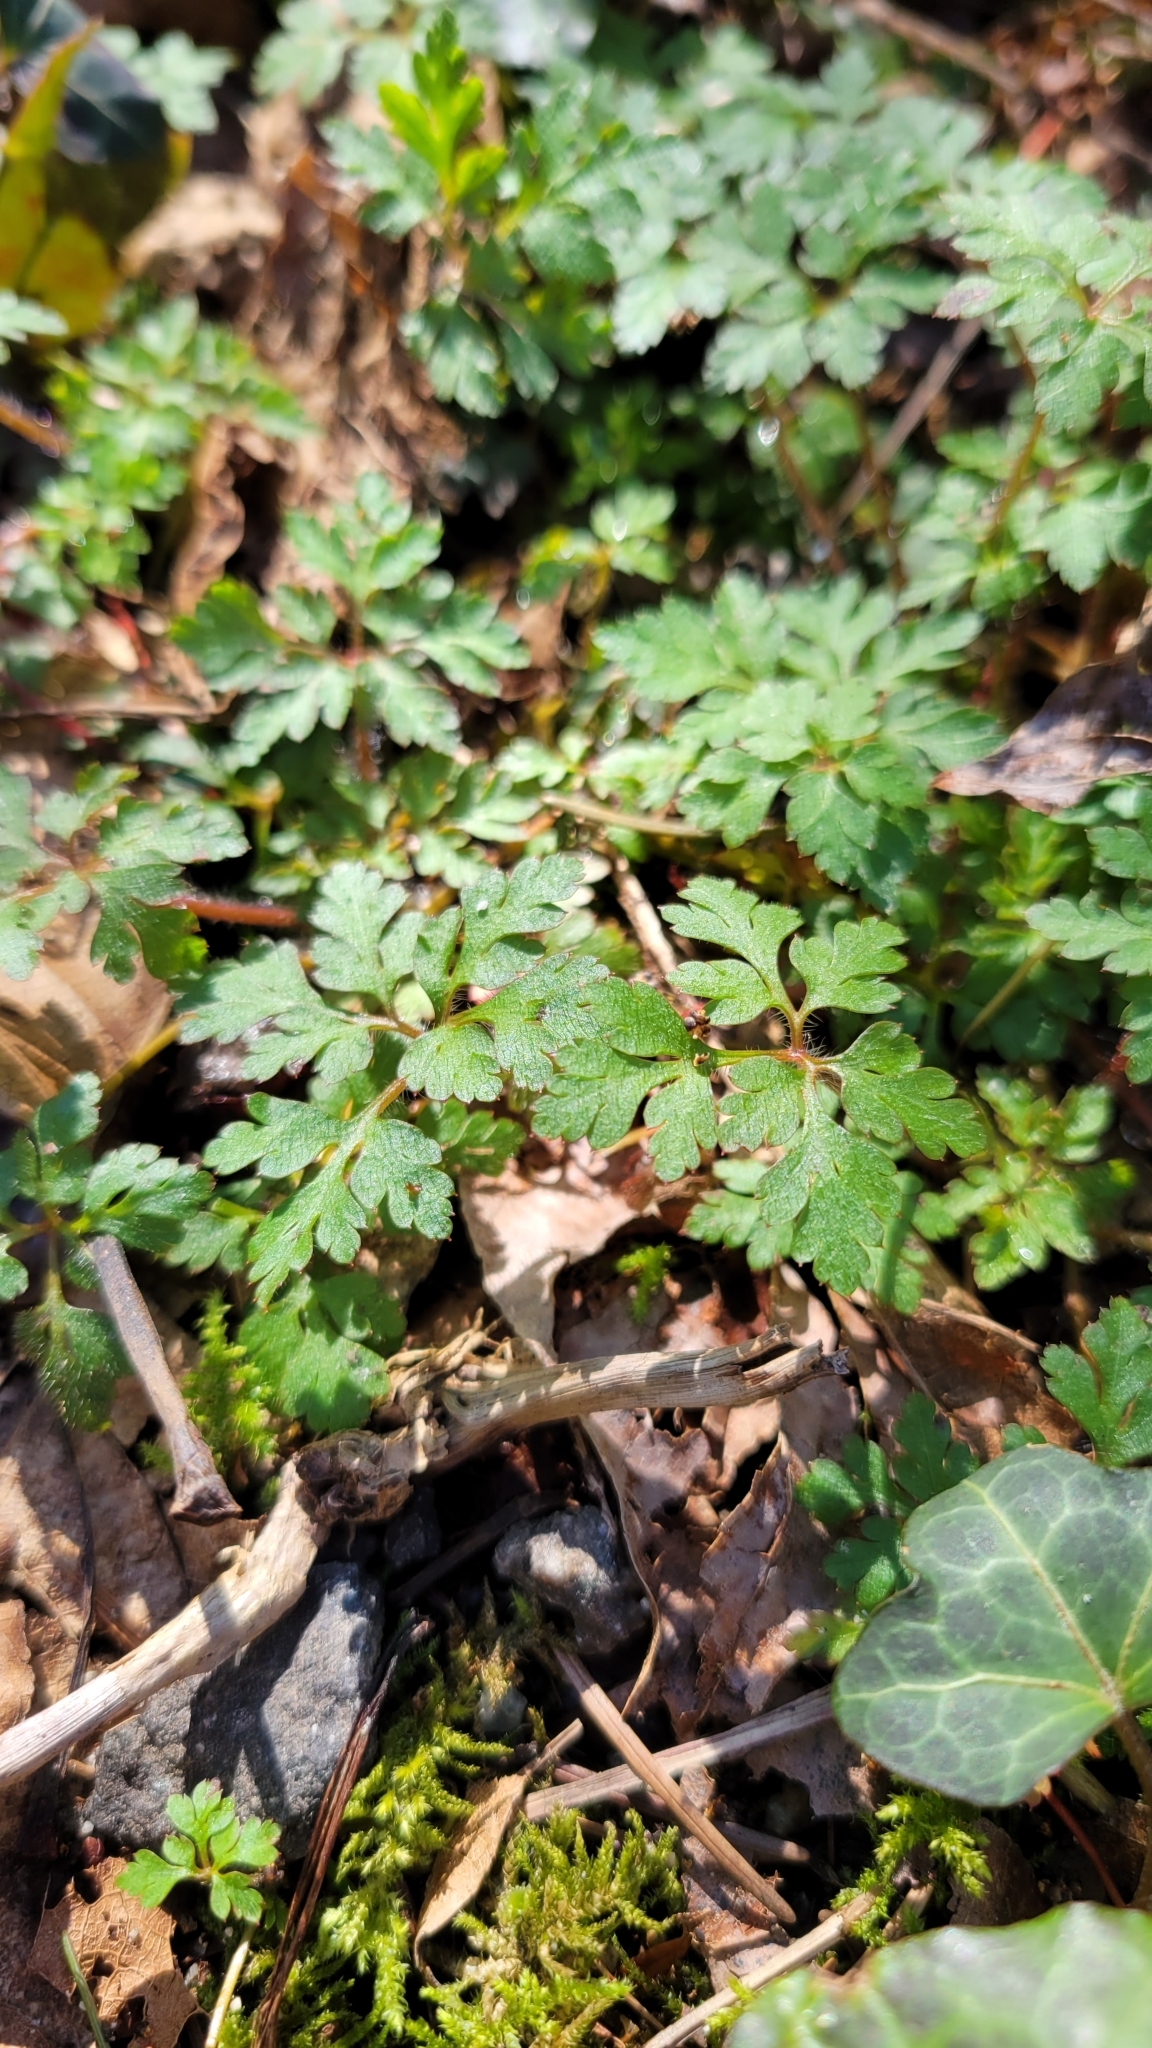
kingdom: Plantae
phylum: Tracheophyta
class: Magnoliopsida
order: Geraniales
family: Geraniaceae
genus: Geranium
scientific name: Geranium robertianum
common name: Herb-robert
